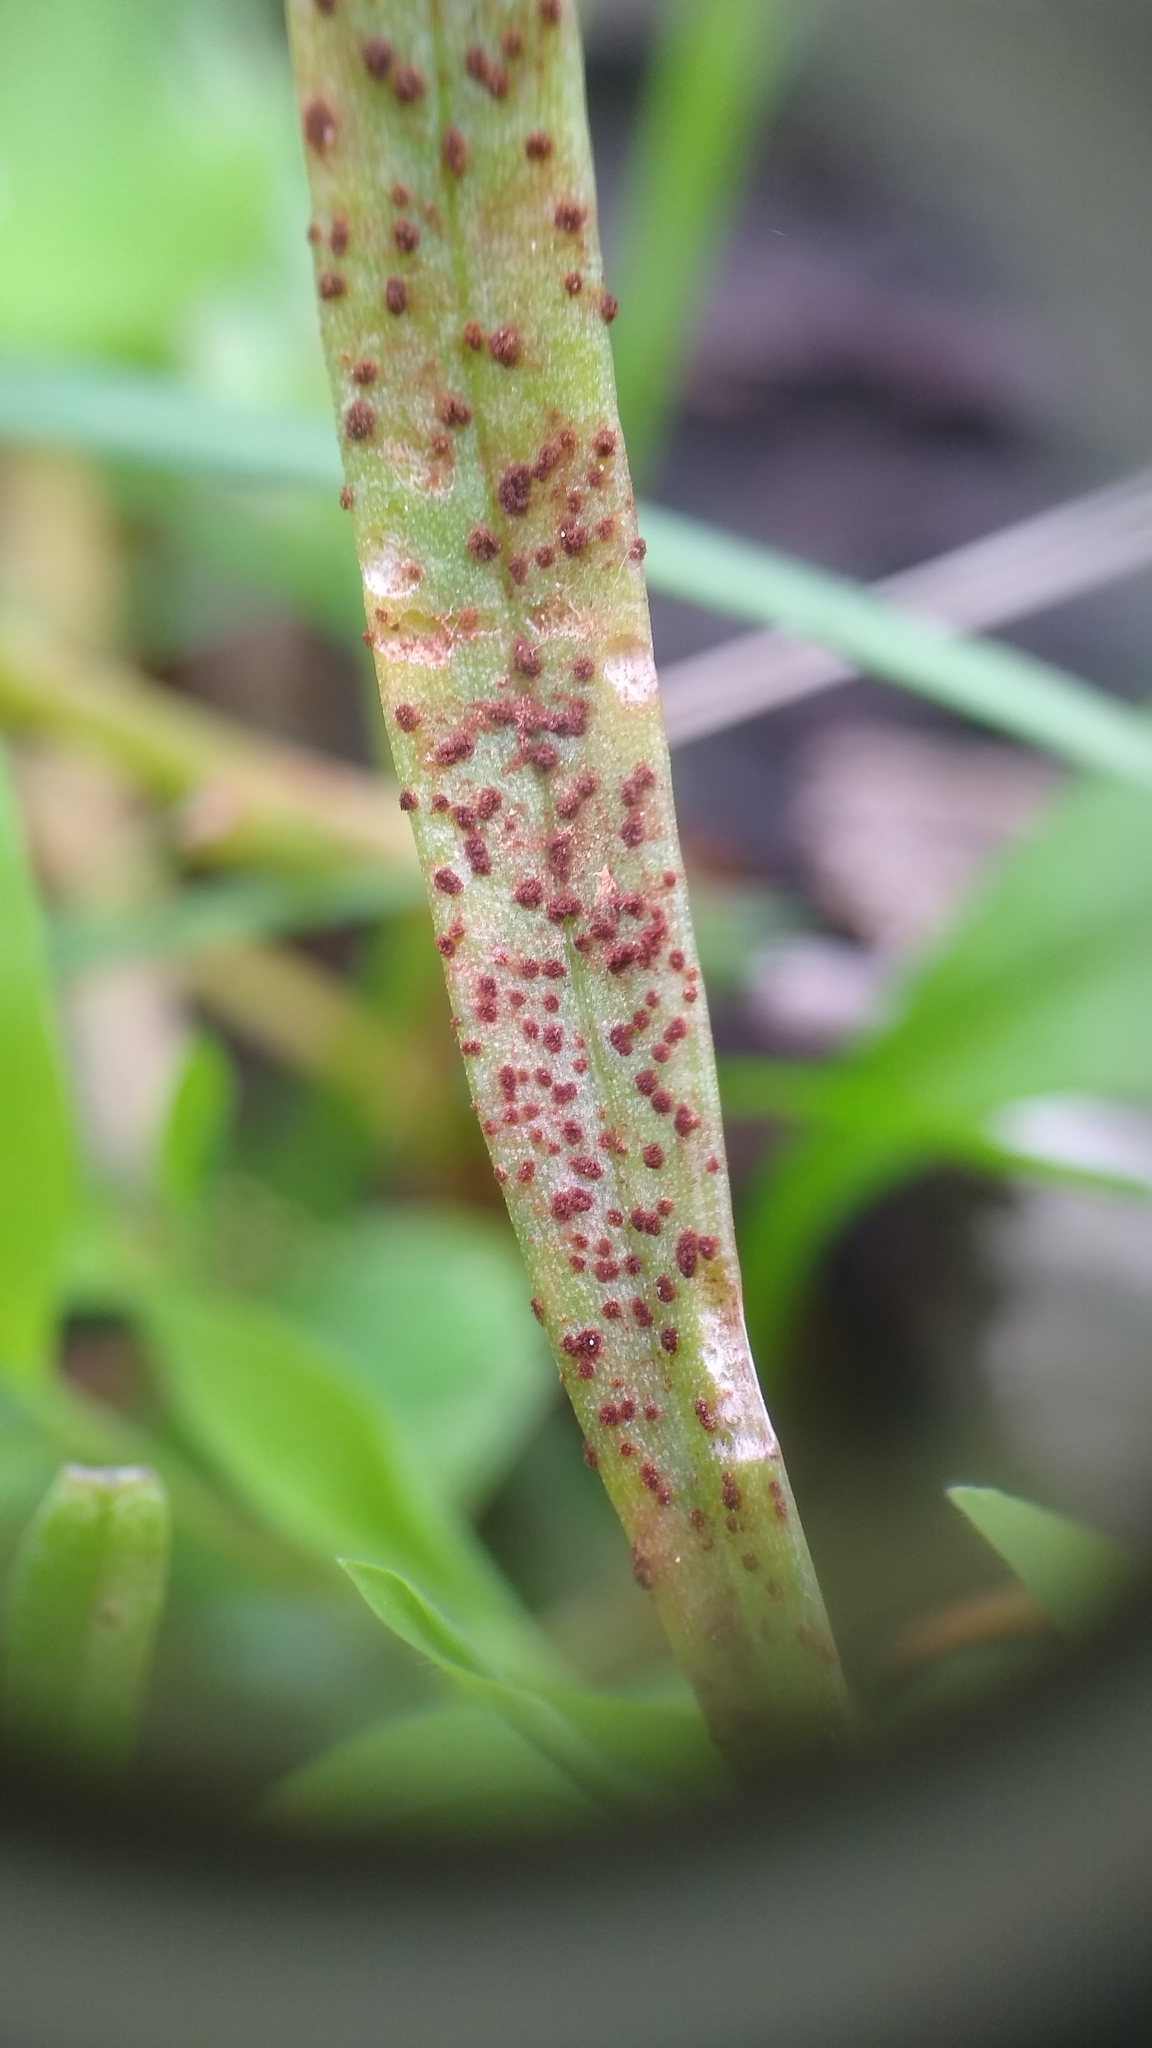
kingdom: Fungi
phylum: Basidiomycota
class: Pucciniomycetes
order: Pucciniales
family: Pucciniaceae
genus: Puccinia
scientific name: Puccinia mariae-wilsoniae
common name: Spring beauty rust
